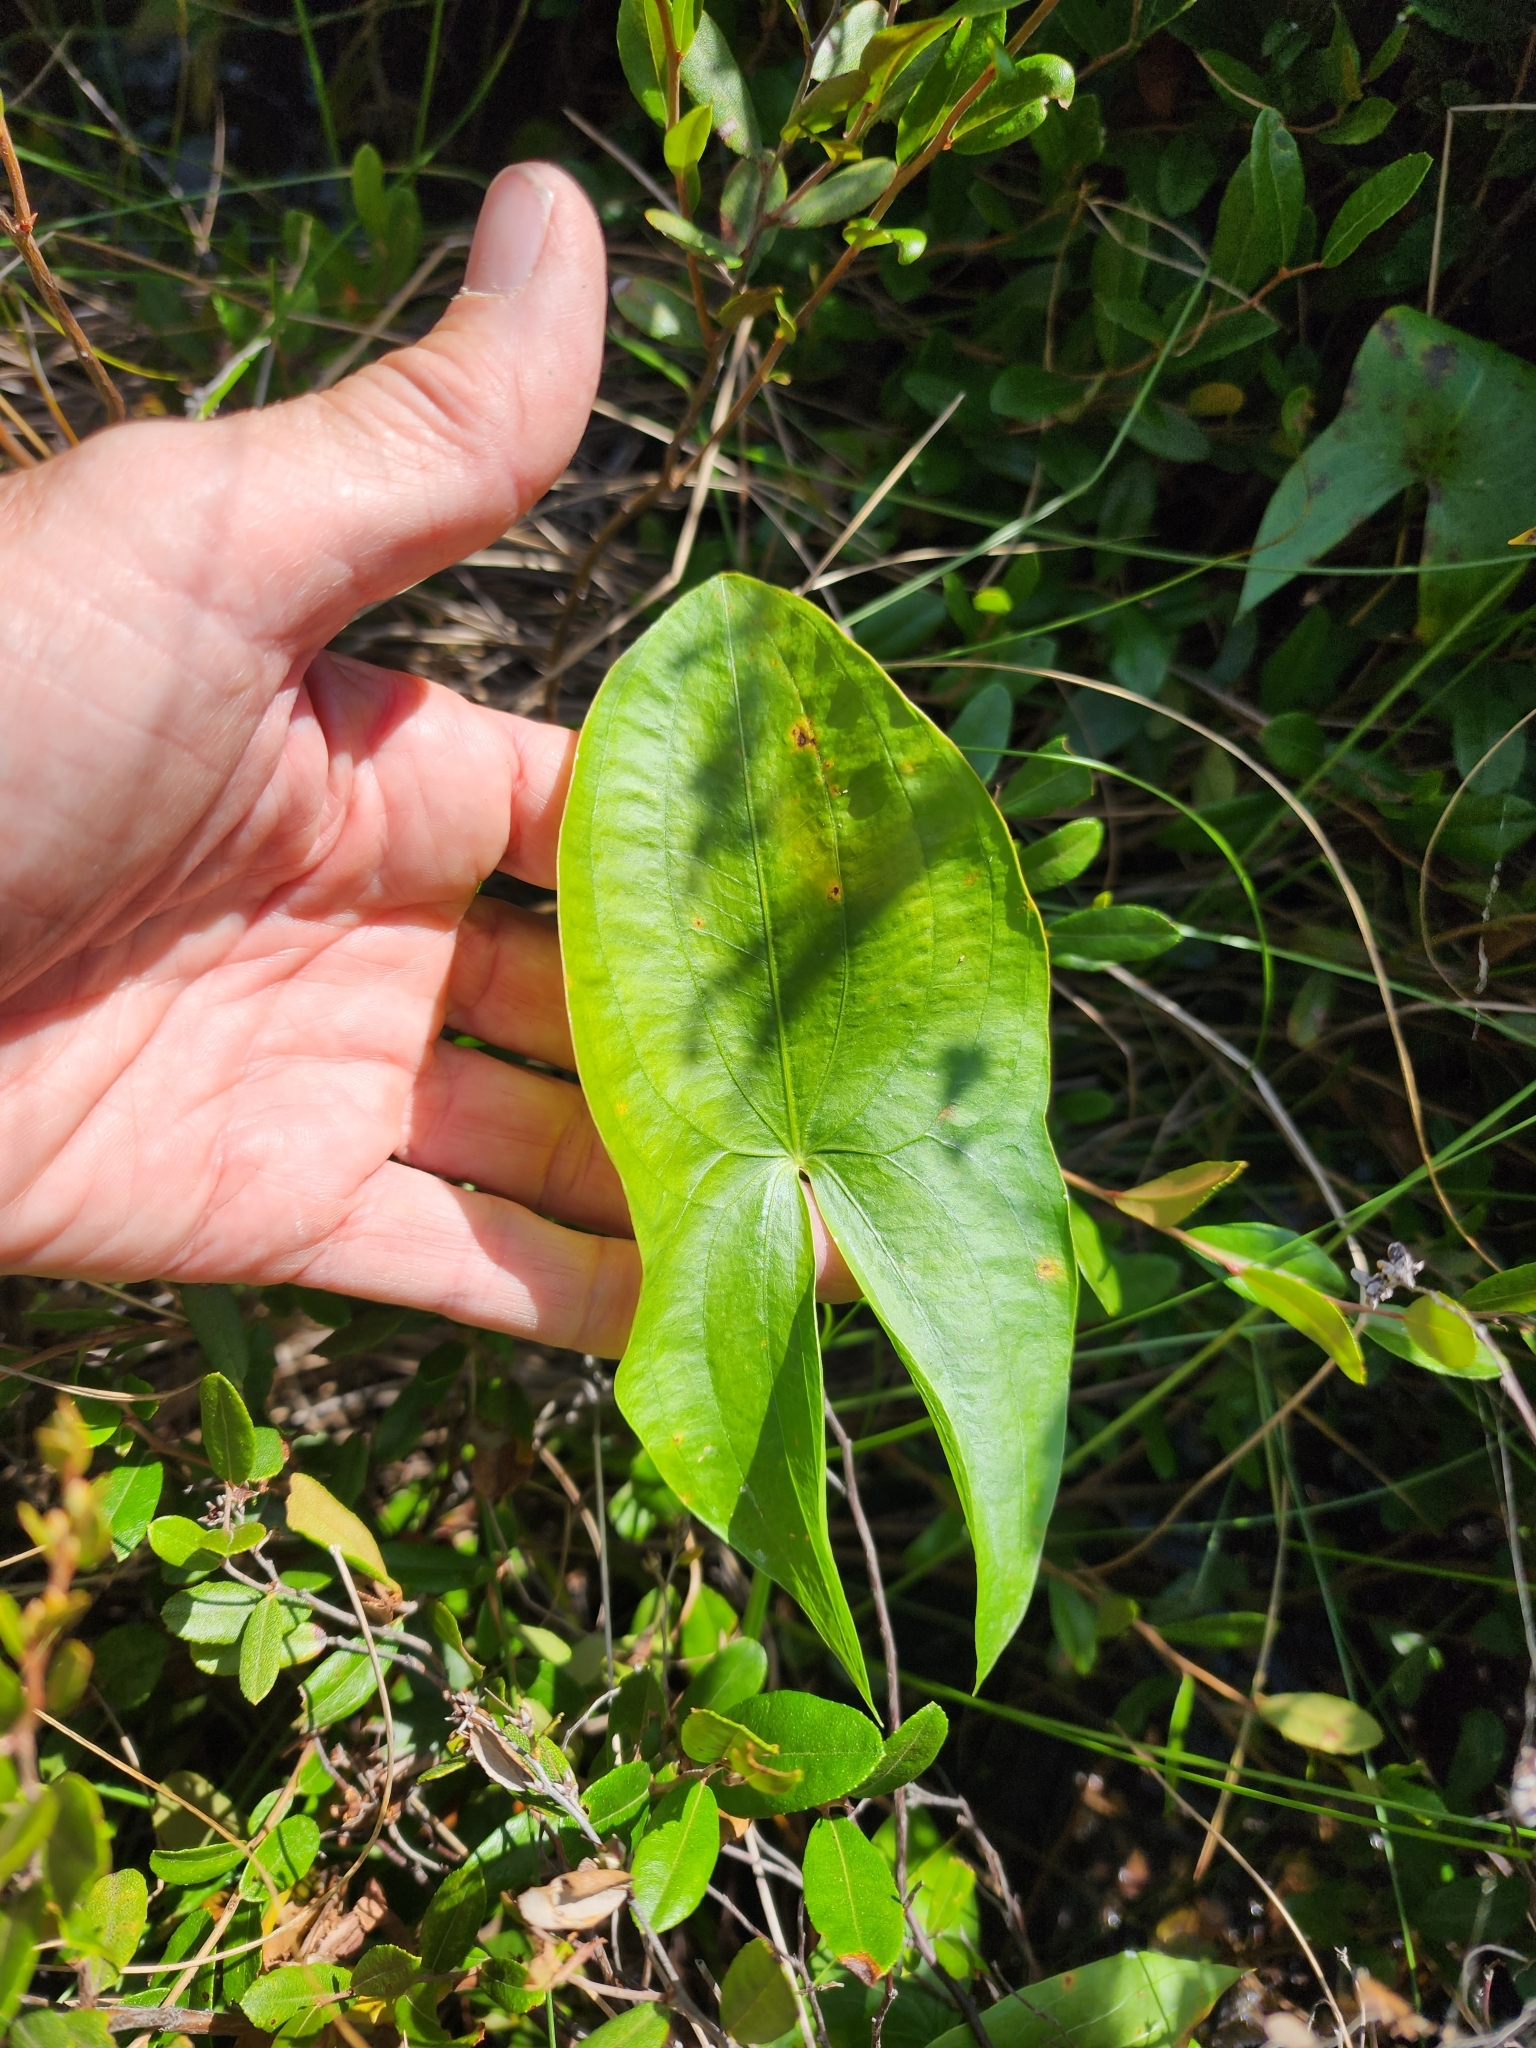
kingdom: Plantae
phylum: Tracheophyta
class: Liliopsida
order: Alismatales
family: Alismataceae
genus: Sagittaria
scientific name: Sagittaria latifolia
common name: Duck-potato
